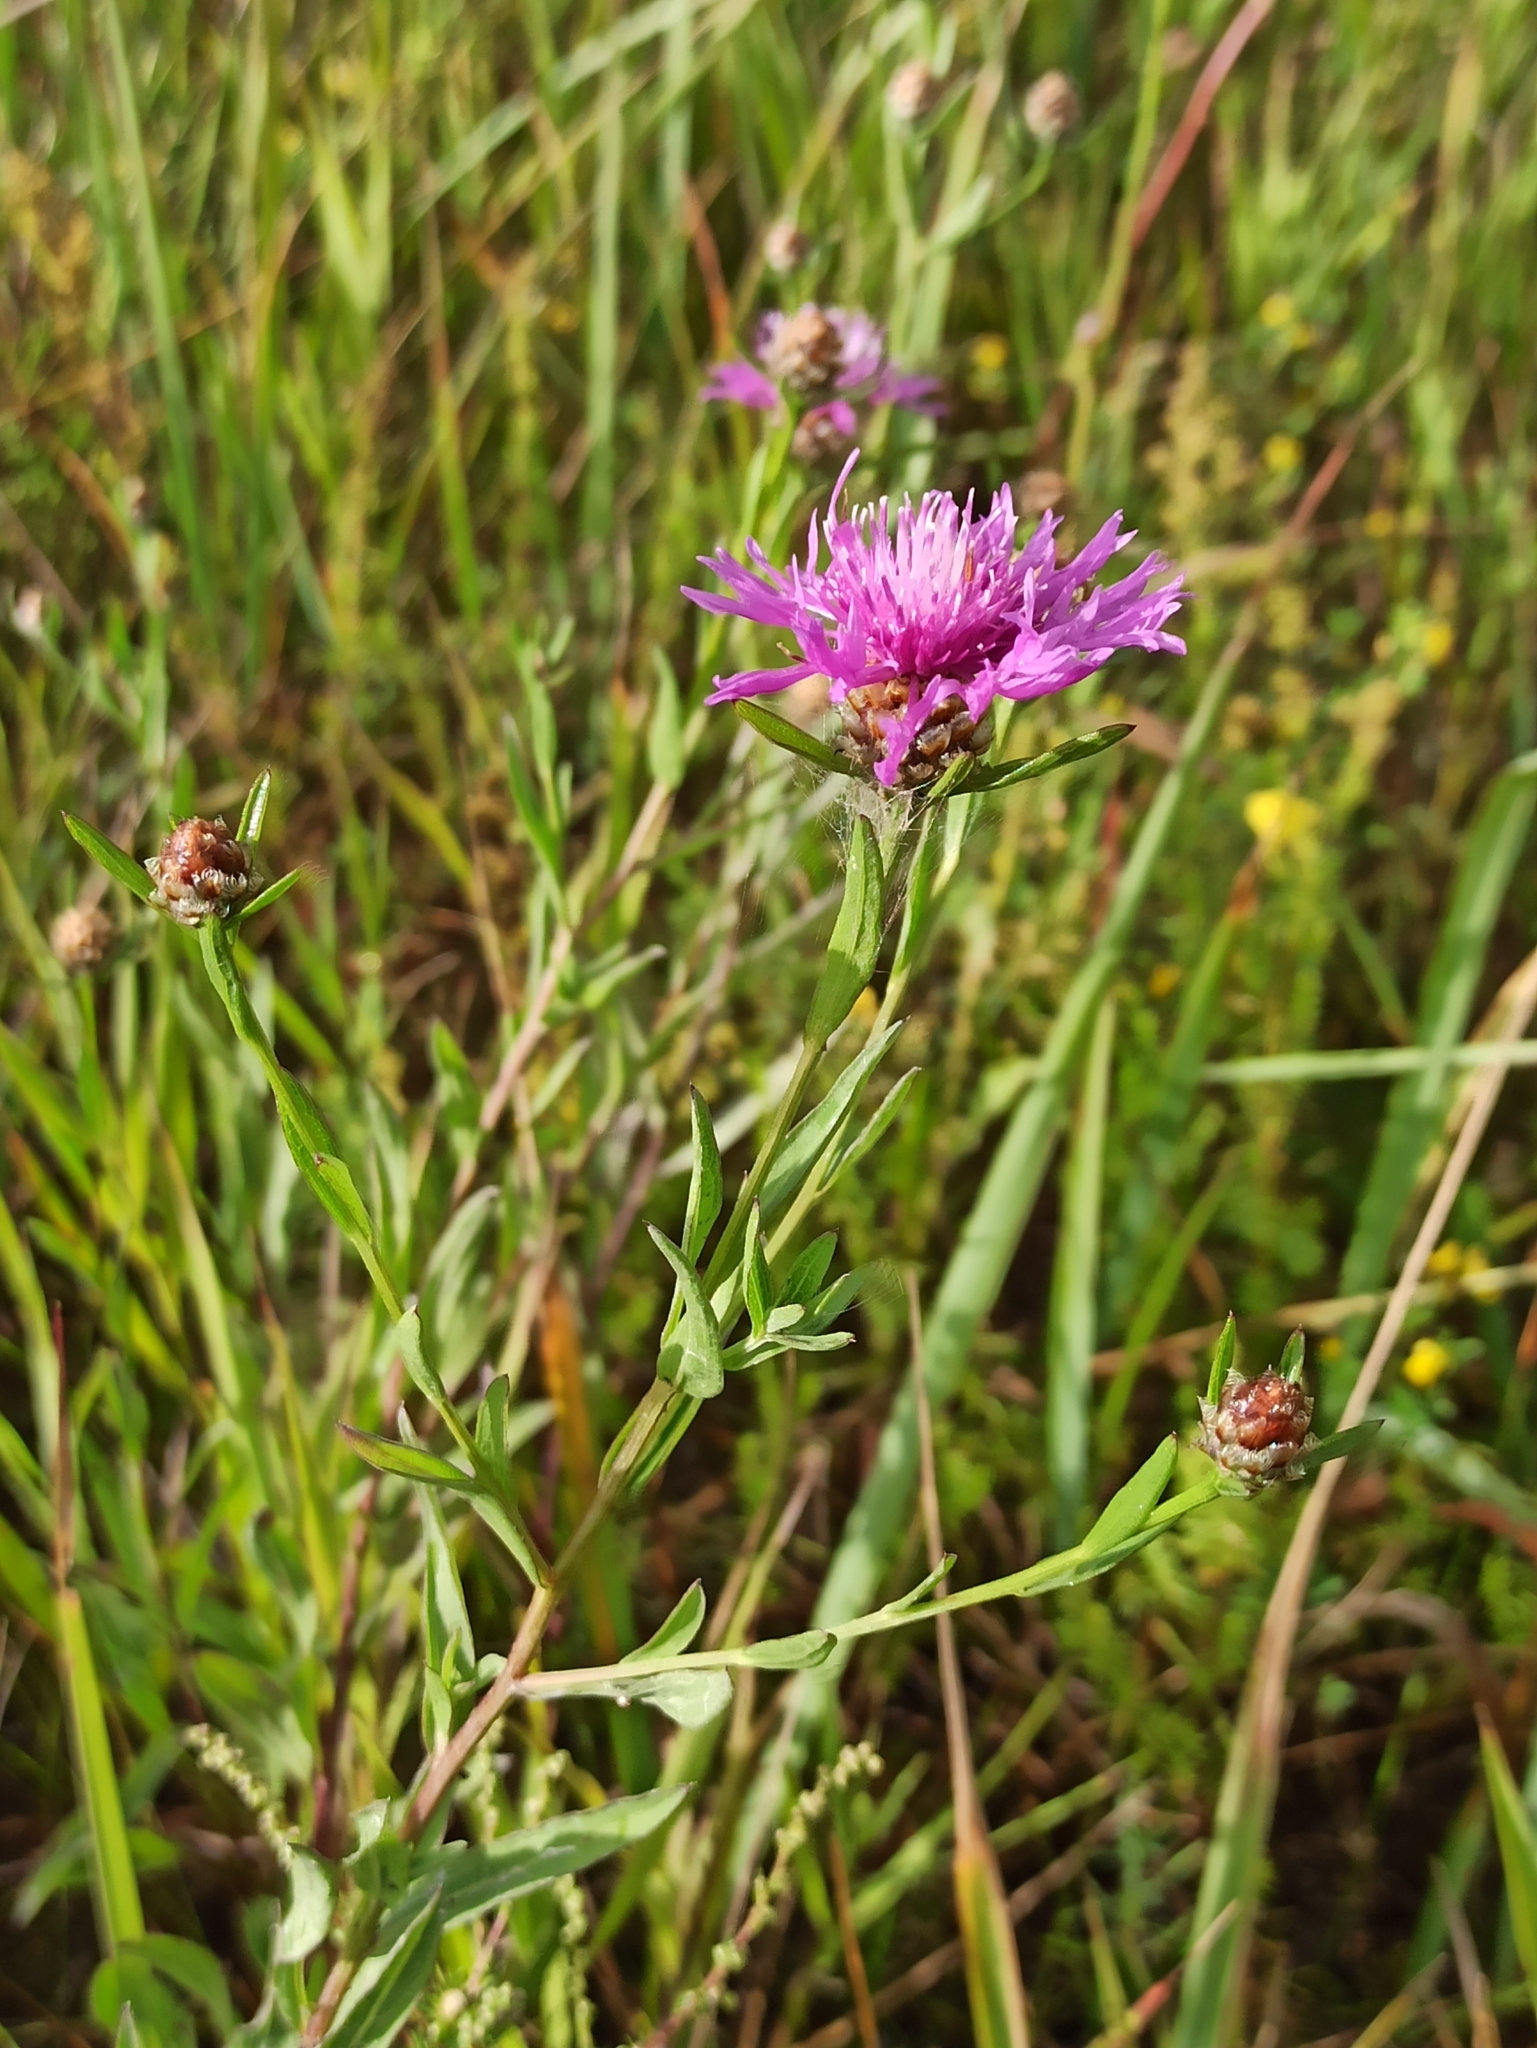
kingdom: Plantae
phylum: Tracheophyta
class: Magnoliopsida
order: Asterales
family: Asteraceae
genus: Centaurea
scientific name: Centaurea jacea
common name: Brown knapweed
